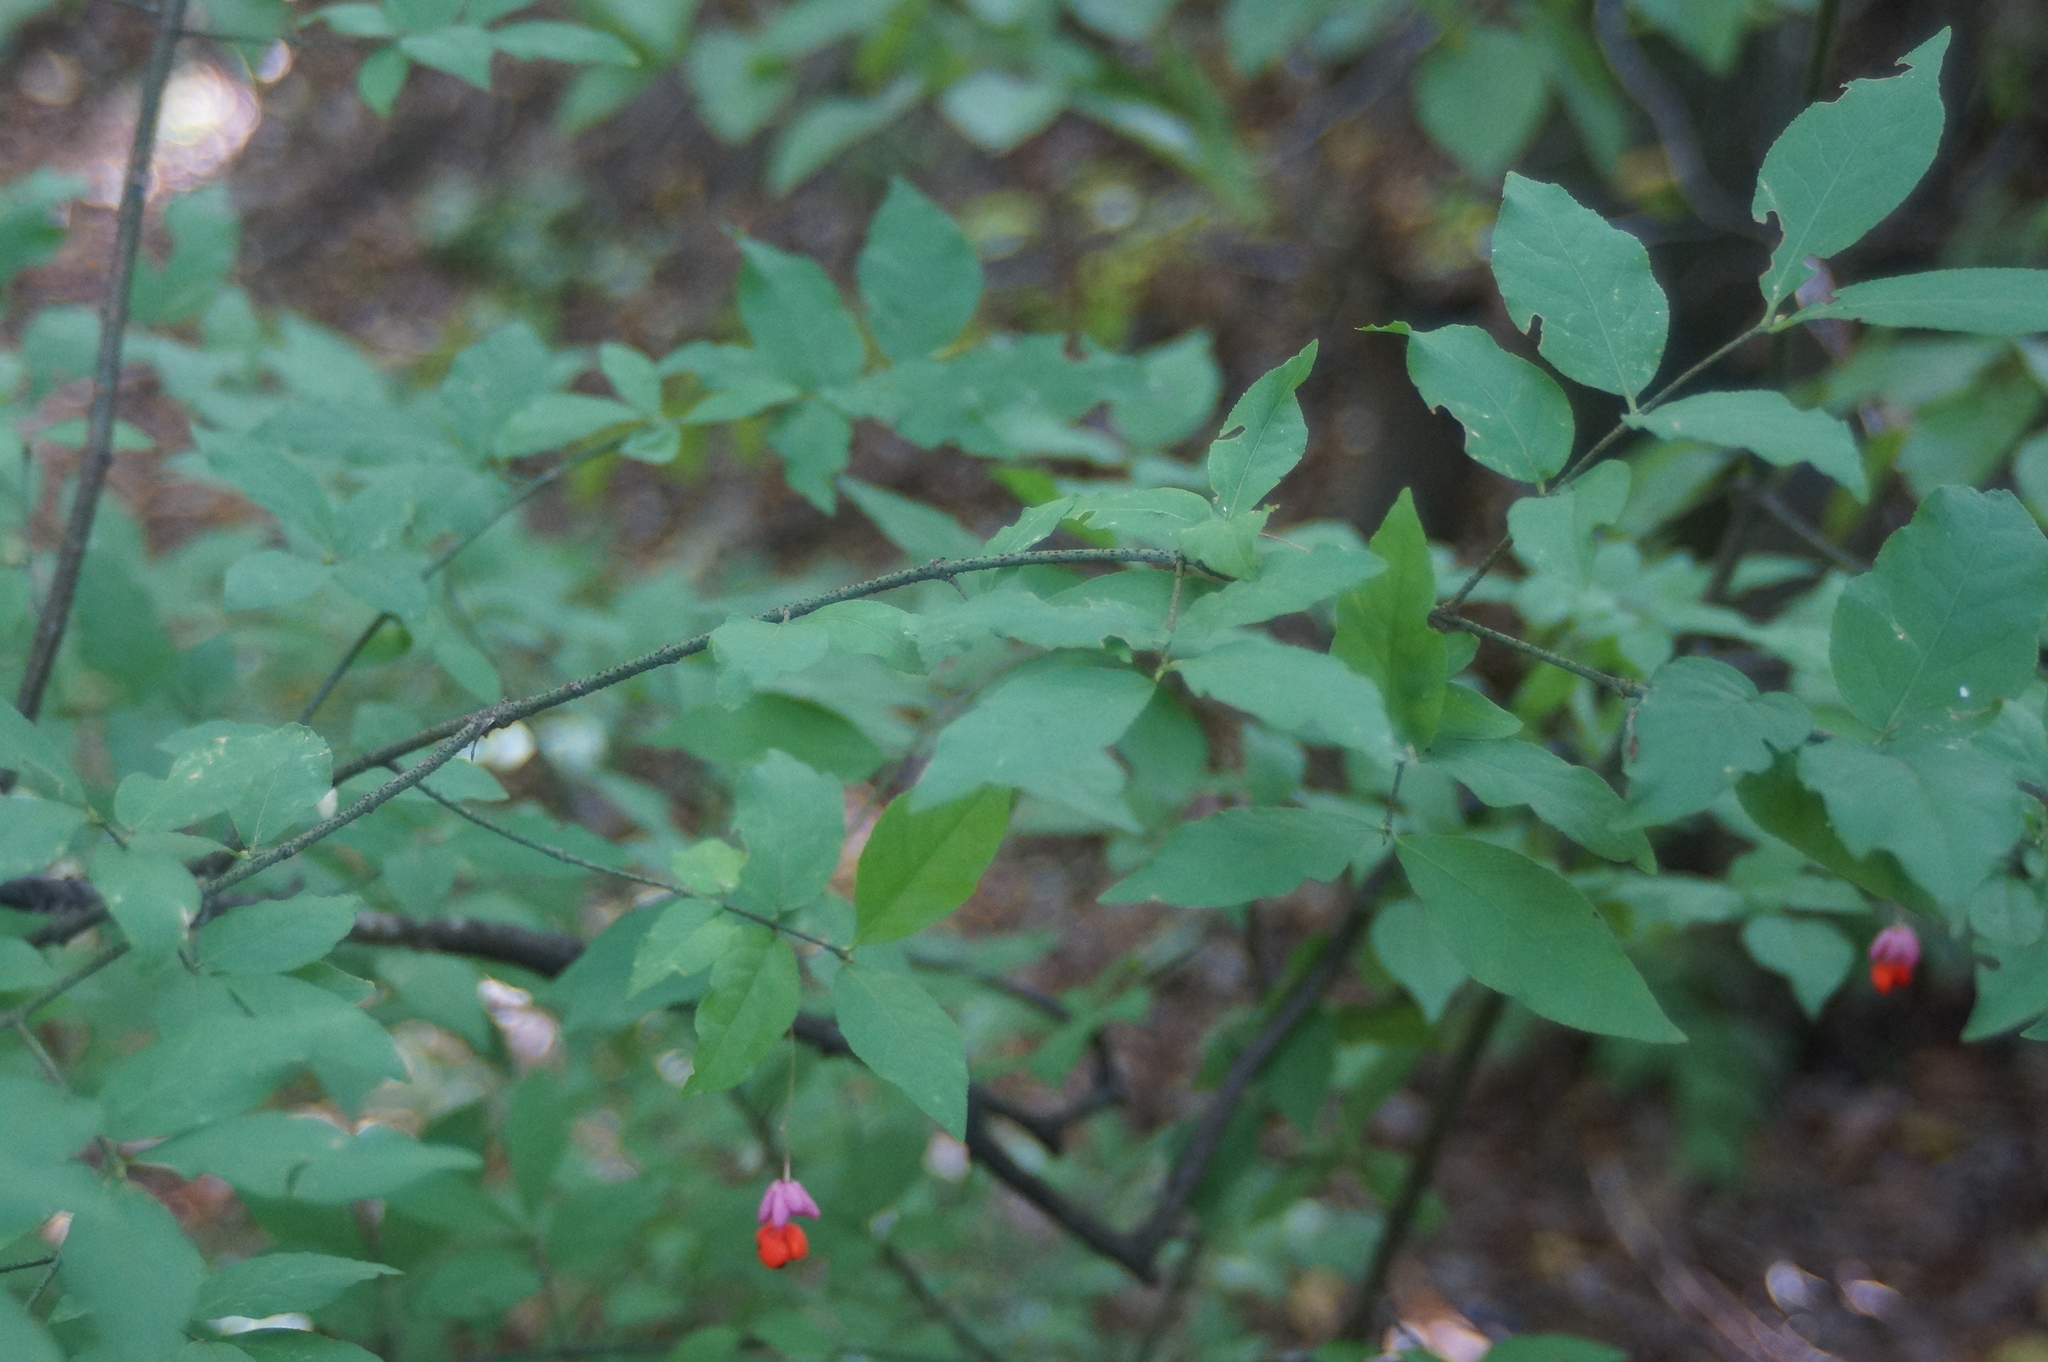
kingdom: Plantae
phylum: Tracheophyta
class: Magnoliopsida
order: Celastrales
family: Celastraceae
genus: Euonymus
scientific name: Euonymus verrucosus
